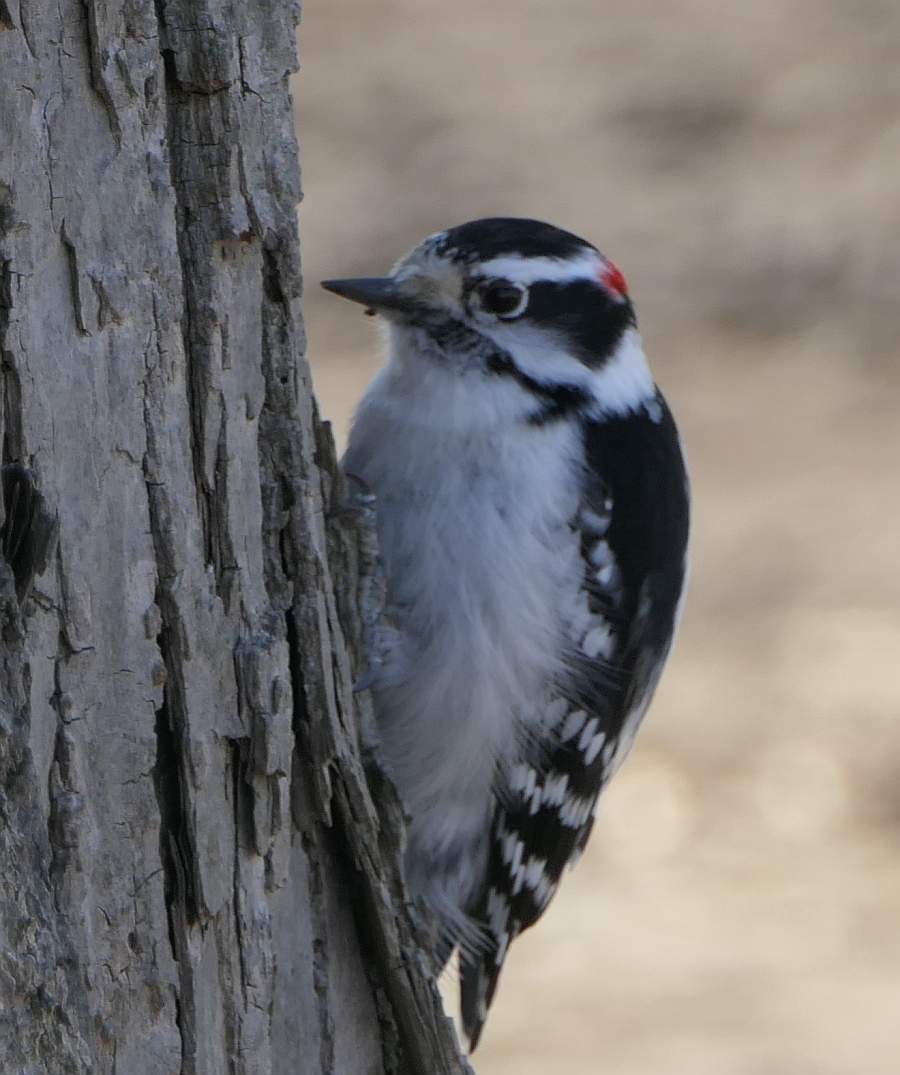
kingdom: Animalia
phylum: Chordata
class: Aves
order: Piciformes
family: Picidae
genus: Dryobates
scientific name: Dryobates pubescens
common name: Downy woodpecker
